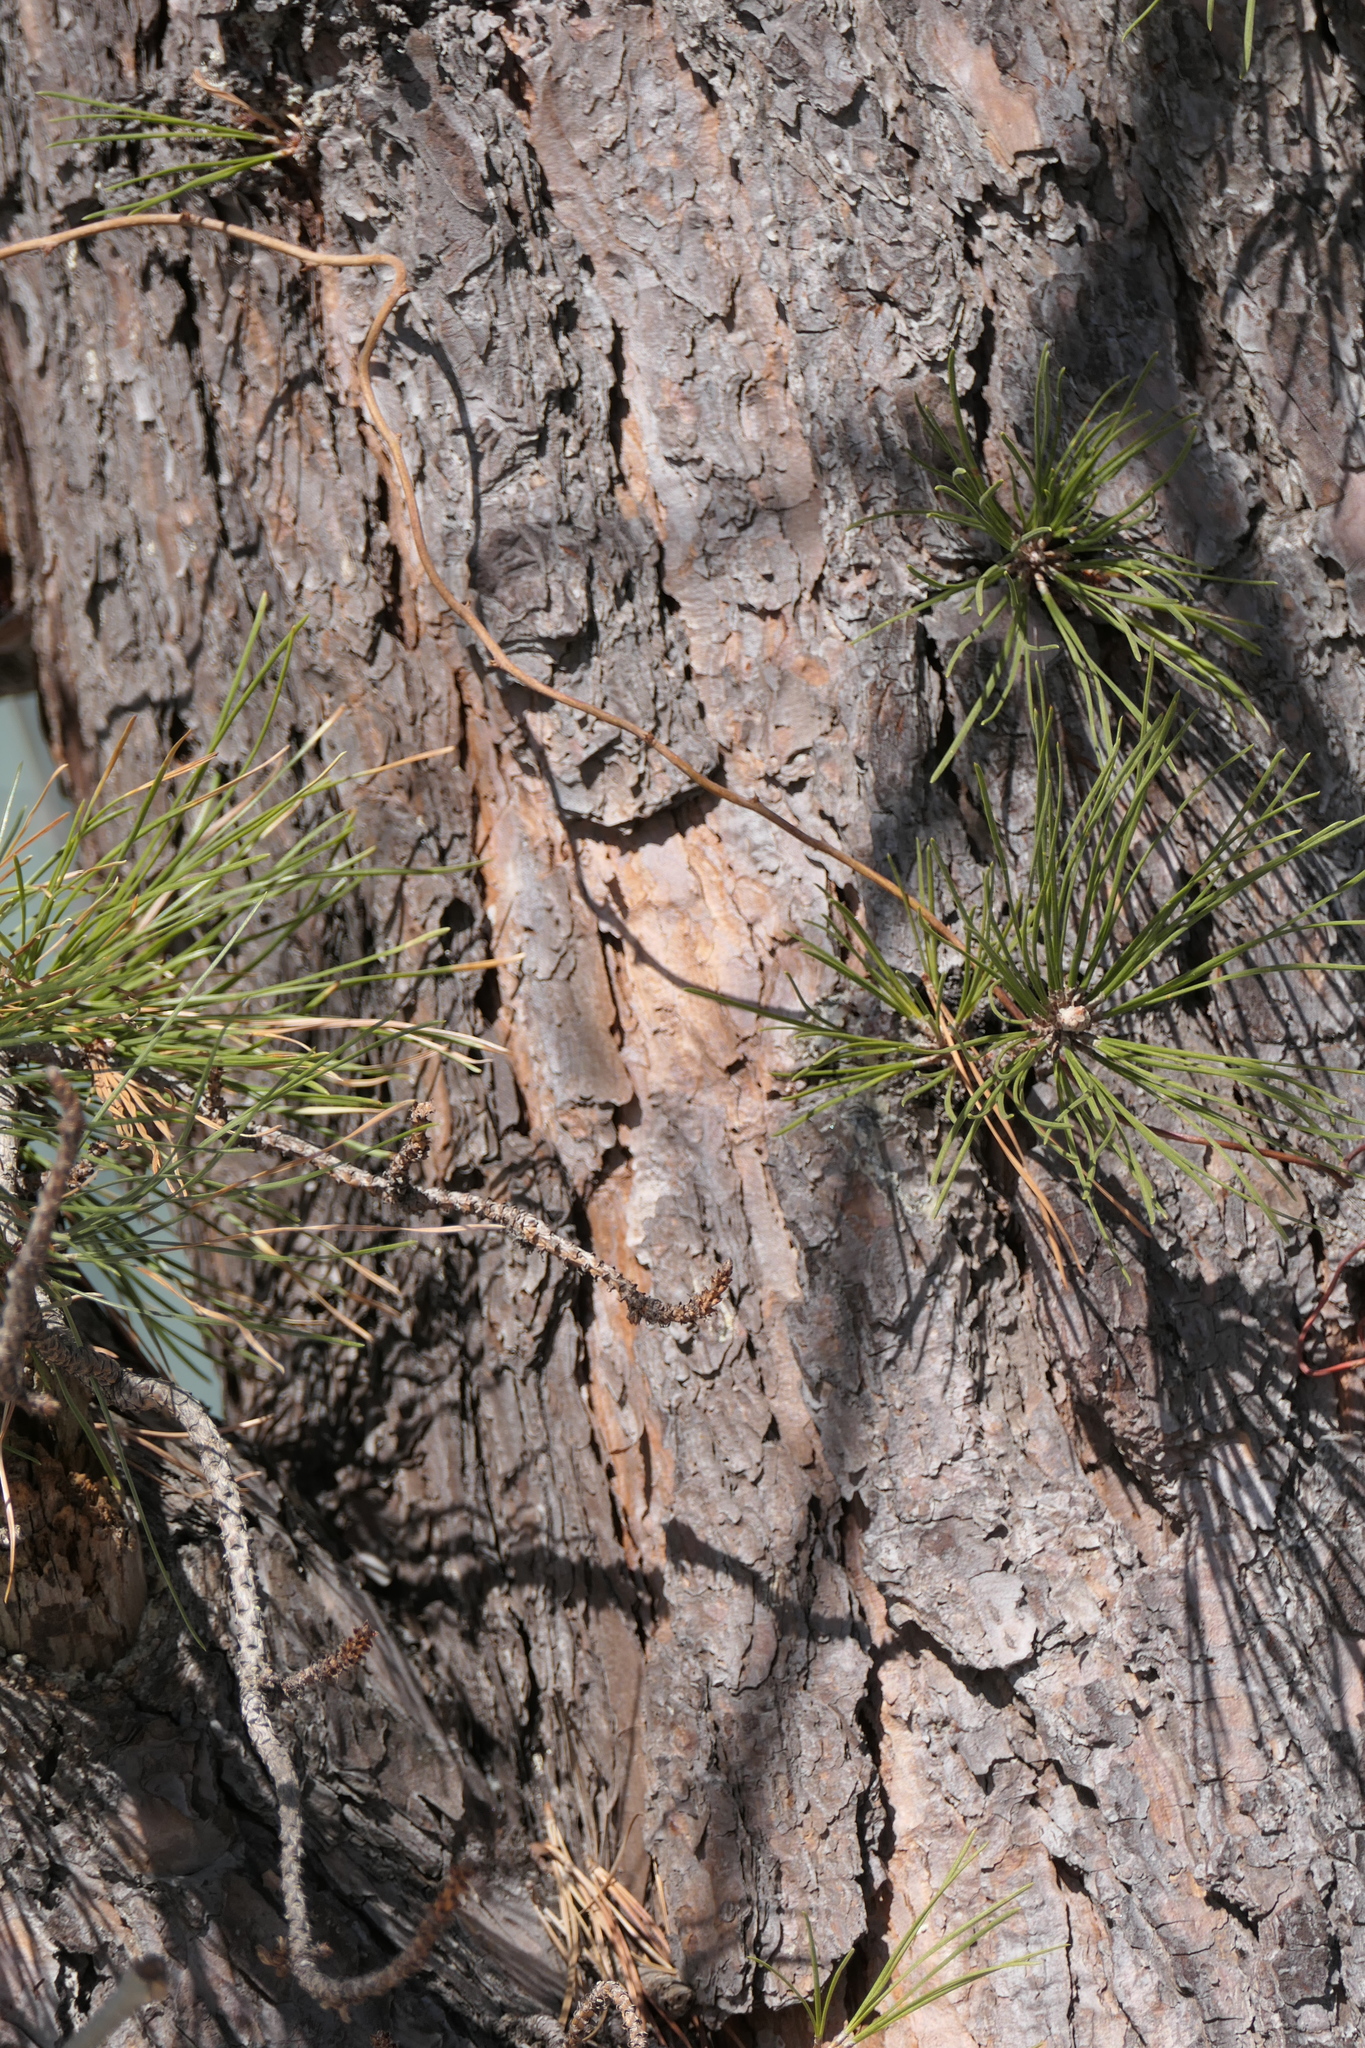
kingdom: Plantae
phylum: Tracheophyta
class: Pinopsida
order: Pinales
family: Pinaceae
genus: Pinus
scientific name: Pinus rigida
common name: Pitch pine
